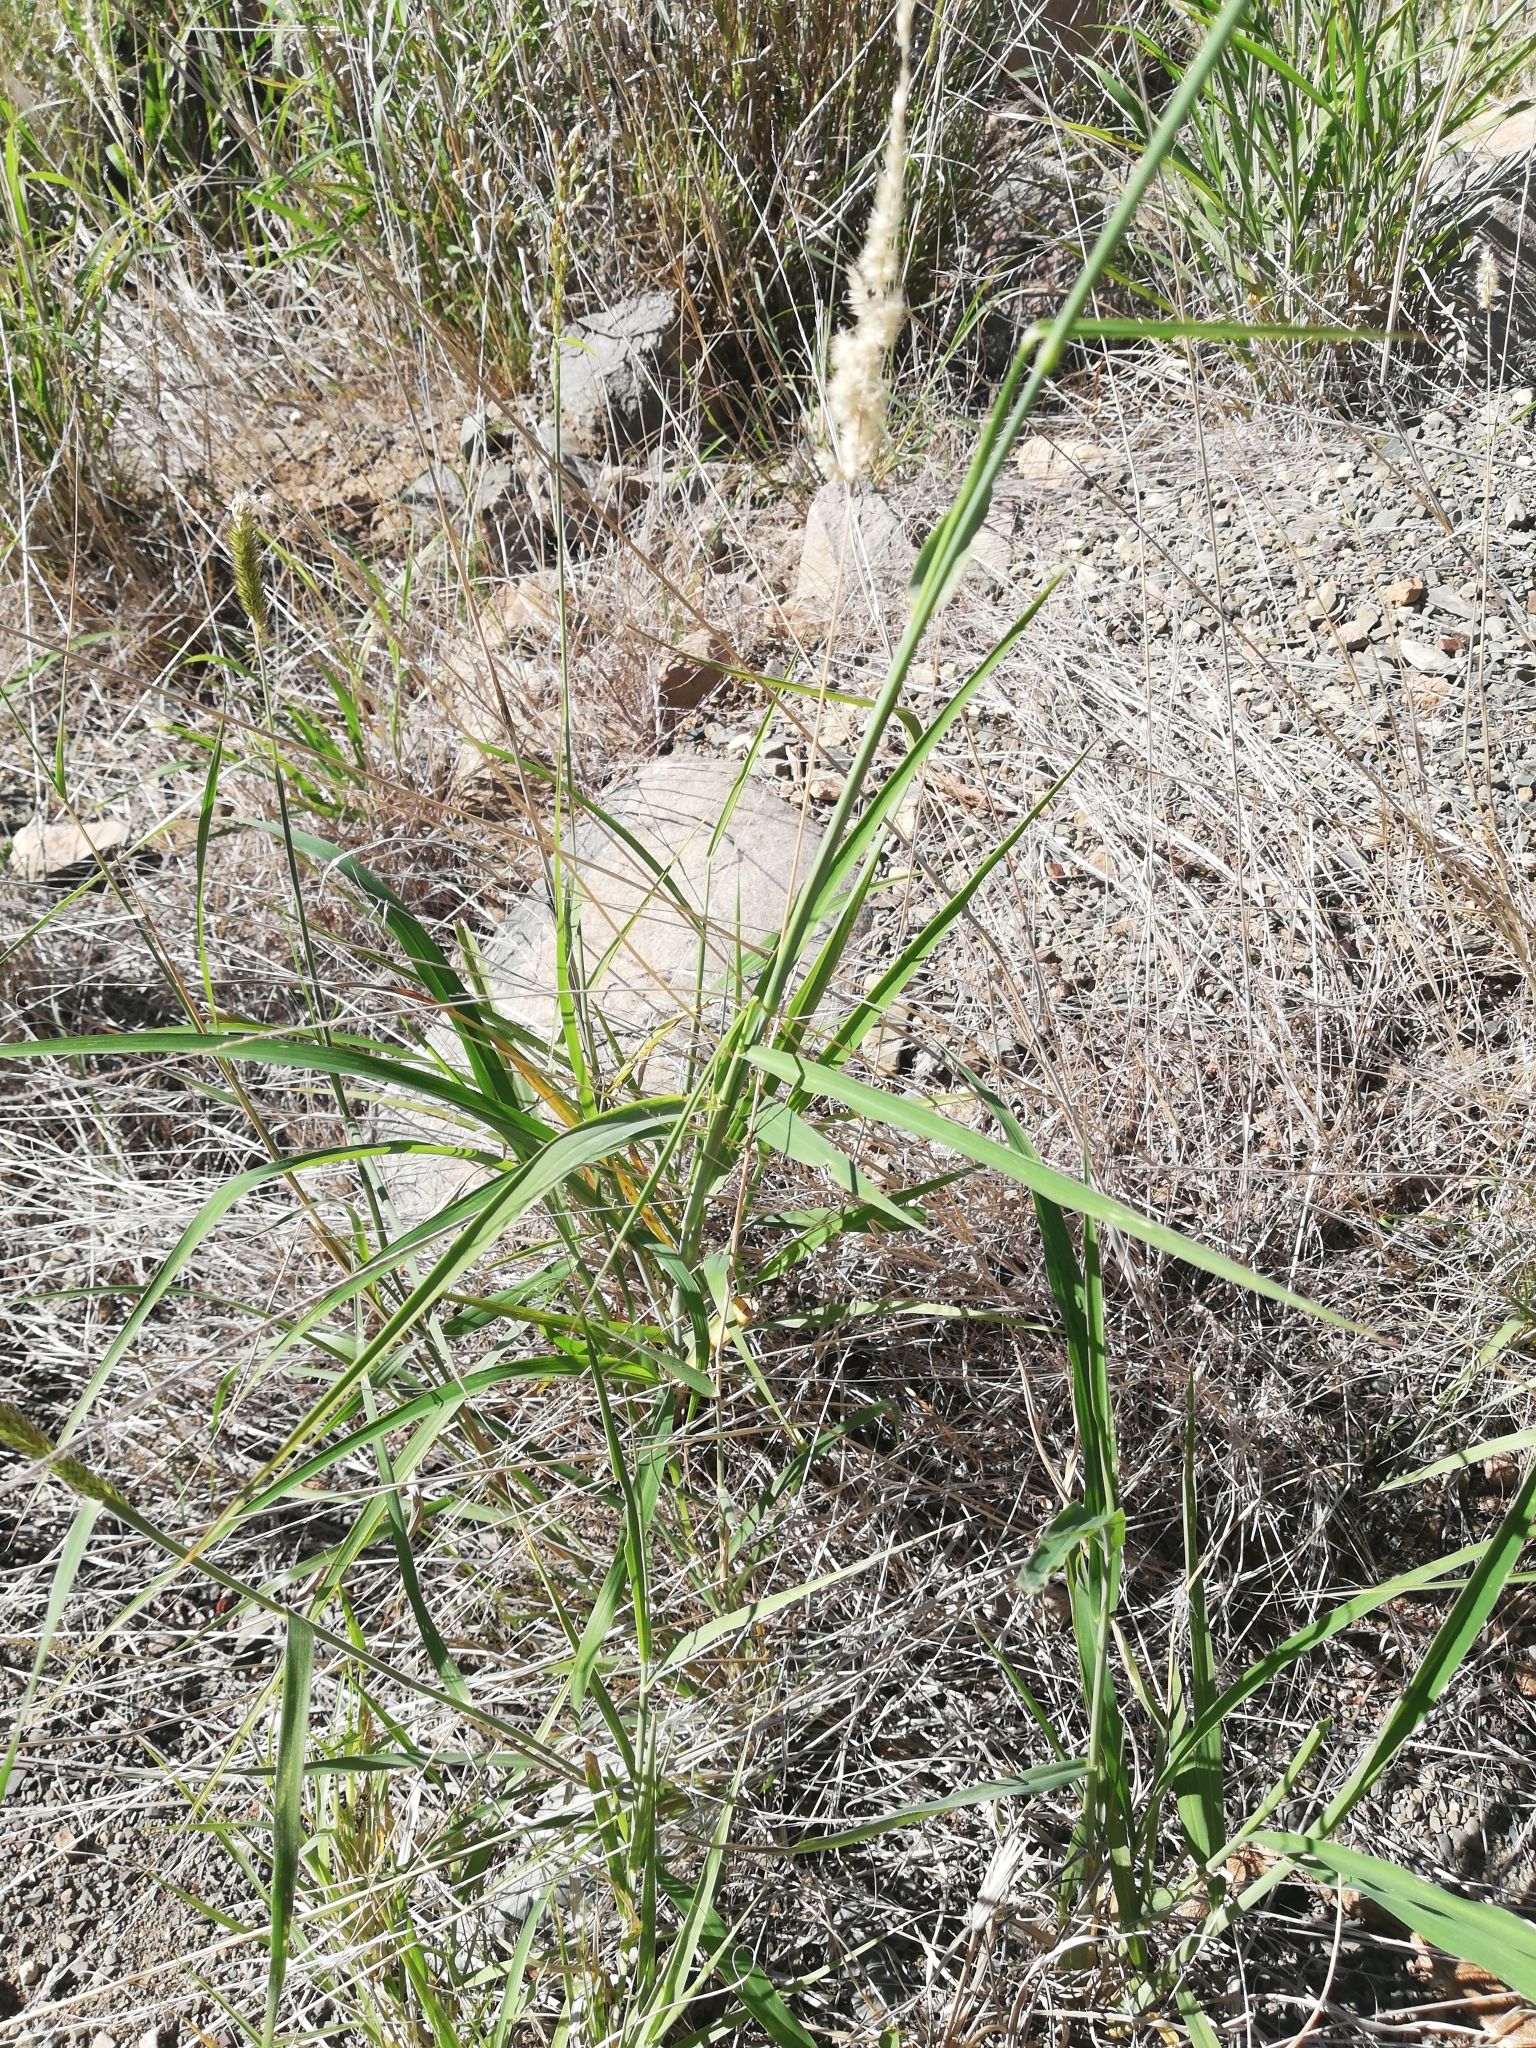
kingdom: Plantae
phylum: Tracheophyta
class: Liliopsida
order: Poales
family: Poaceae
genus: Megathyrsus
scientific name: Megathyrsus maximus
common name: Guineagrass
